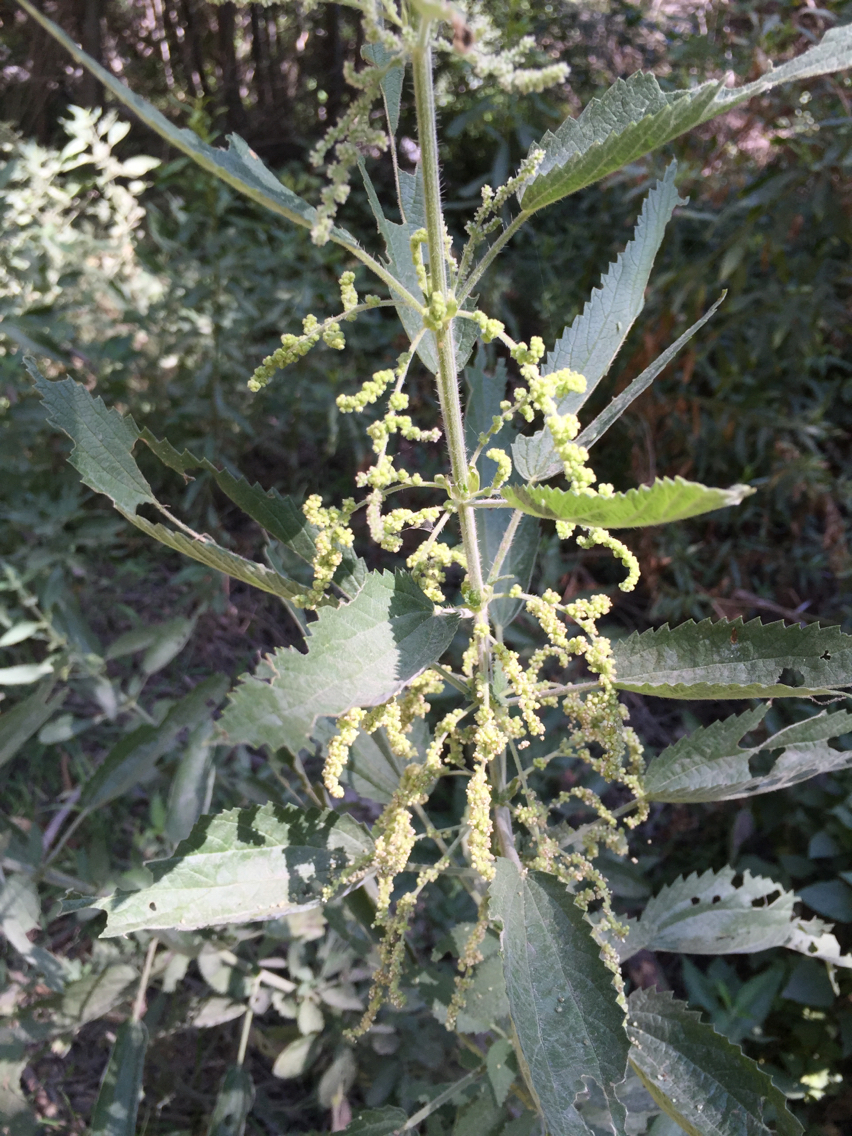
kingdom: Plantae
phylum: Tracheophyta
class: Magnoliopsida
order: Rosales
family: Urticaceae
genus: Urtica
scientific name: Urtica dioica
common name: Common nettle
